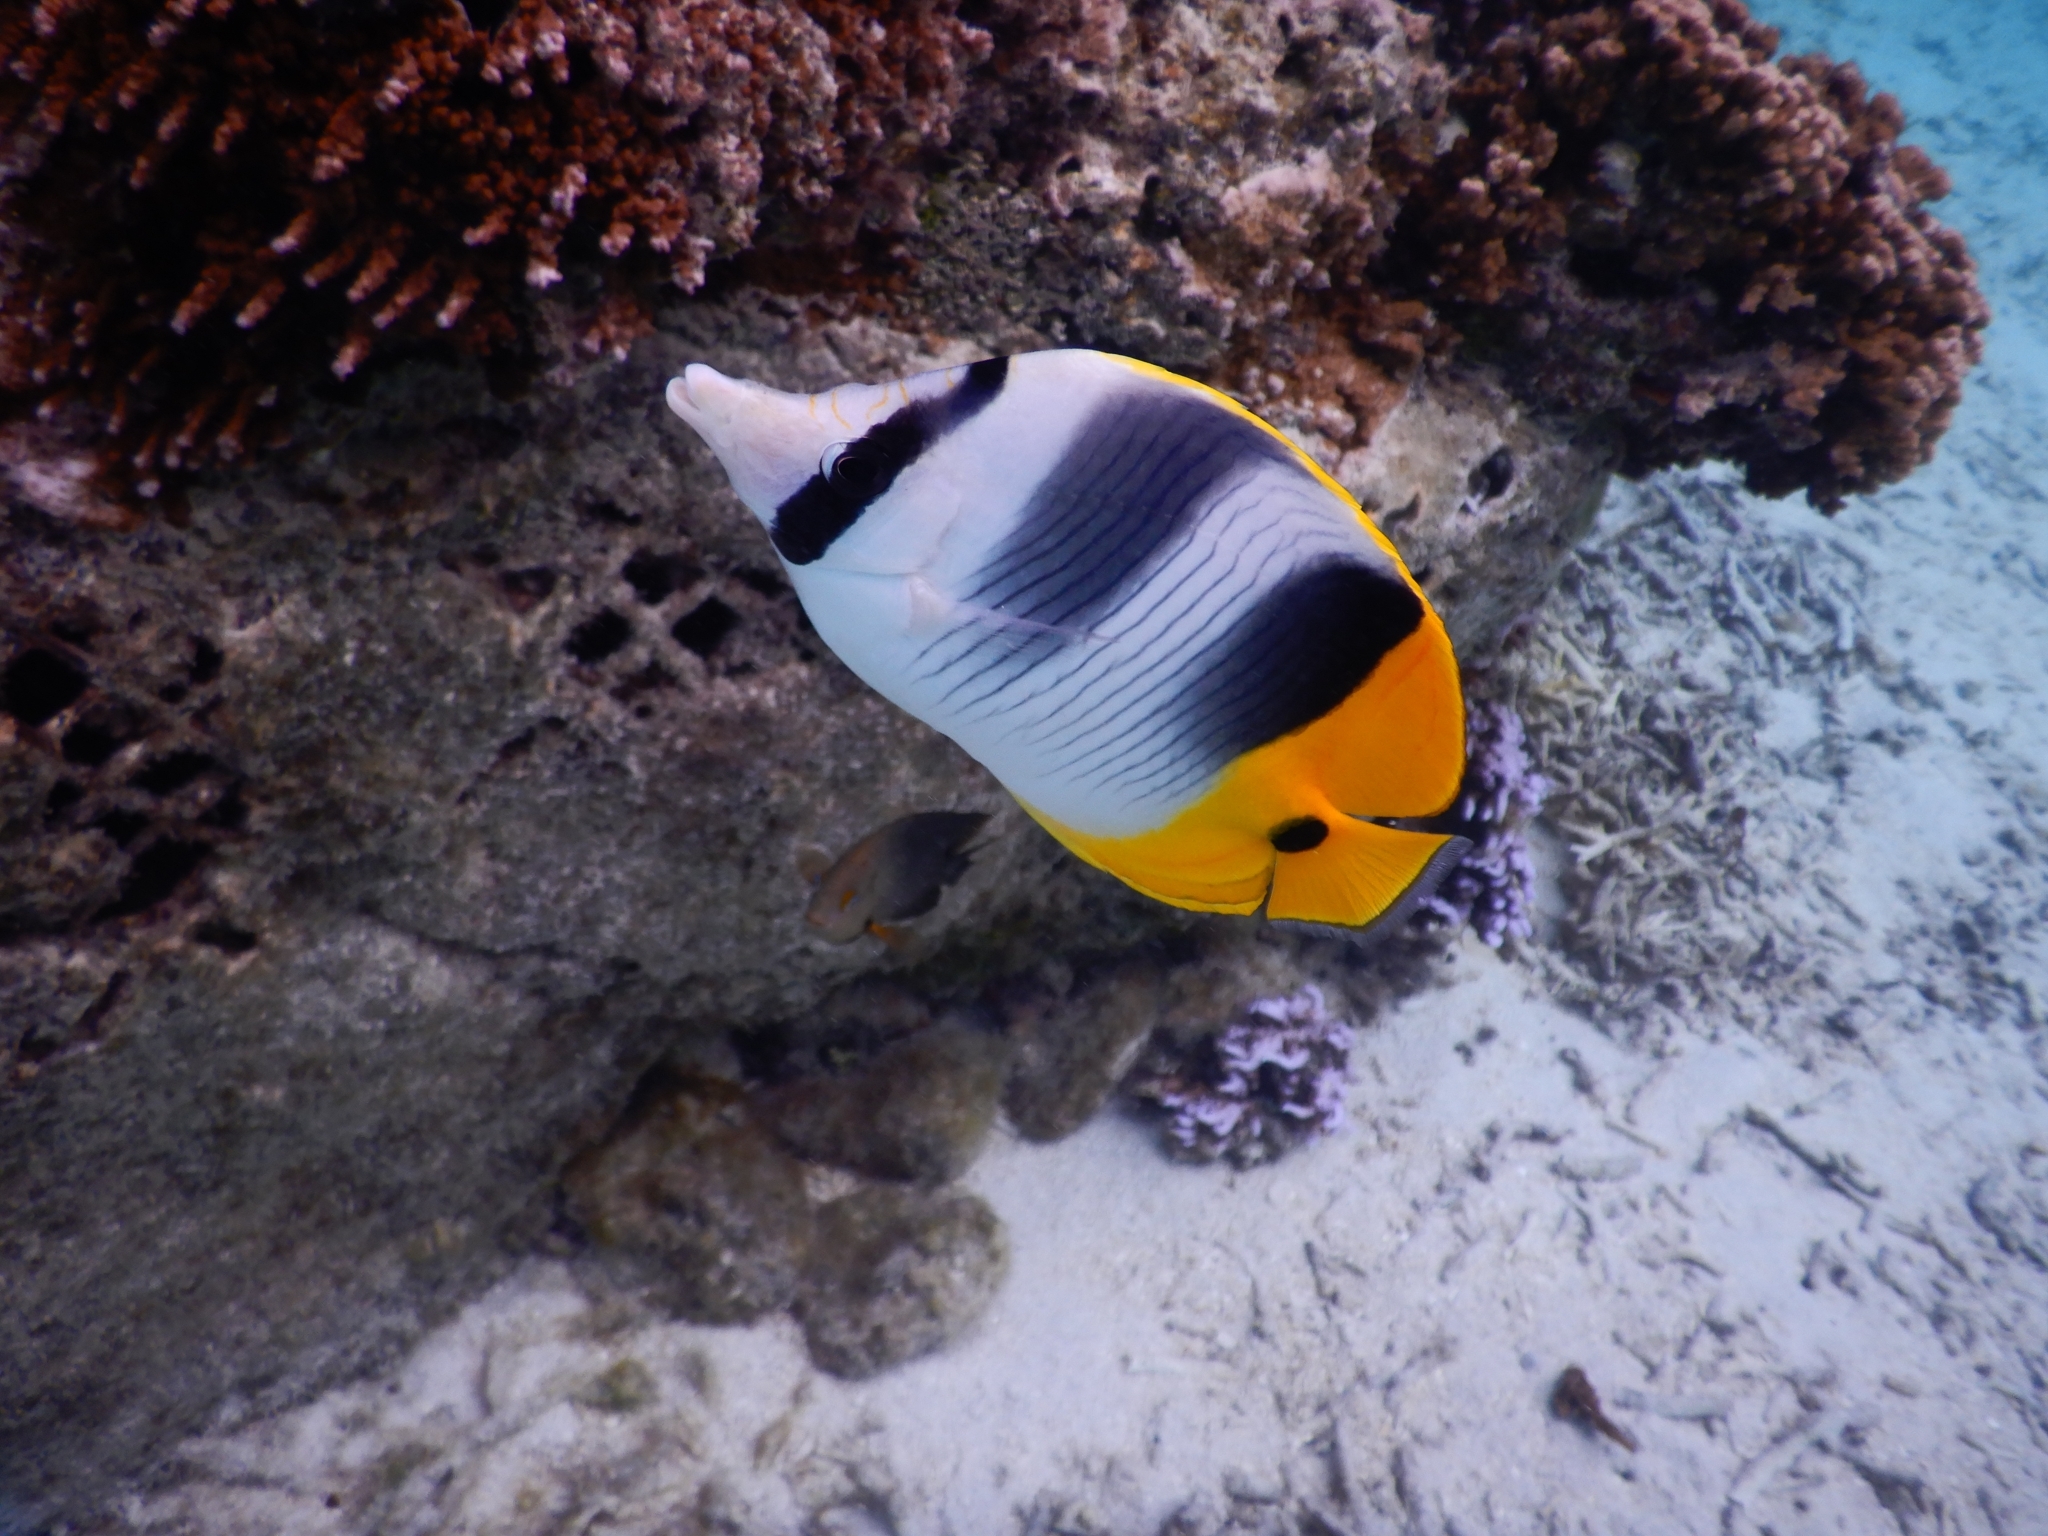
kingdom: Animalia
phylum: Chordata
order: Perciformes
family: Chaetodontidae
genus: Chaetodon
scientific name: Chaetodon ulietensis
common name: Pacific double-saddle butterflyfish
